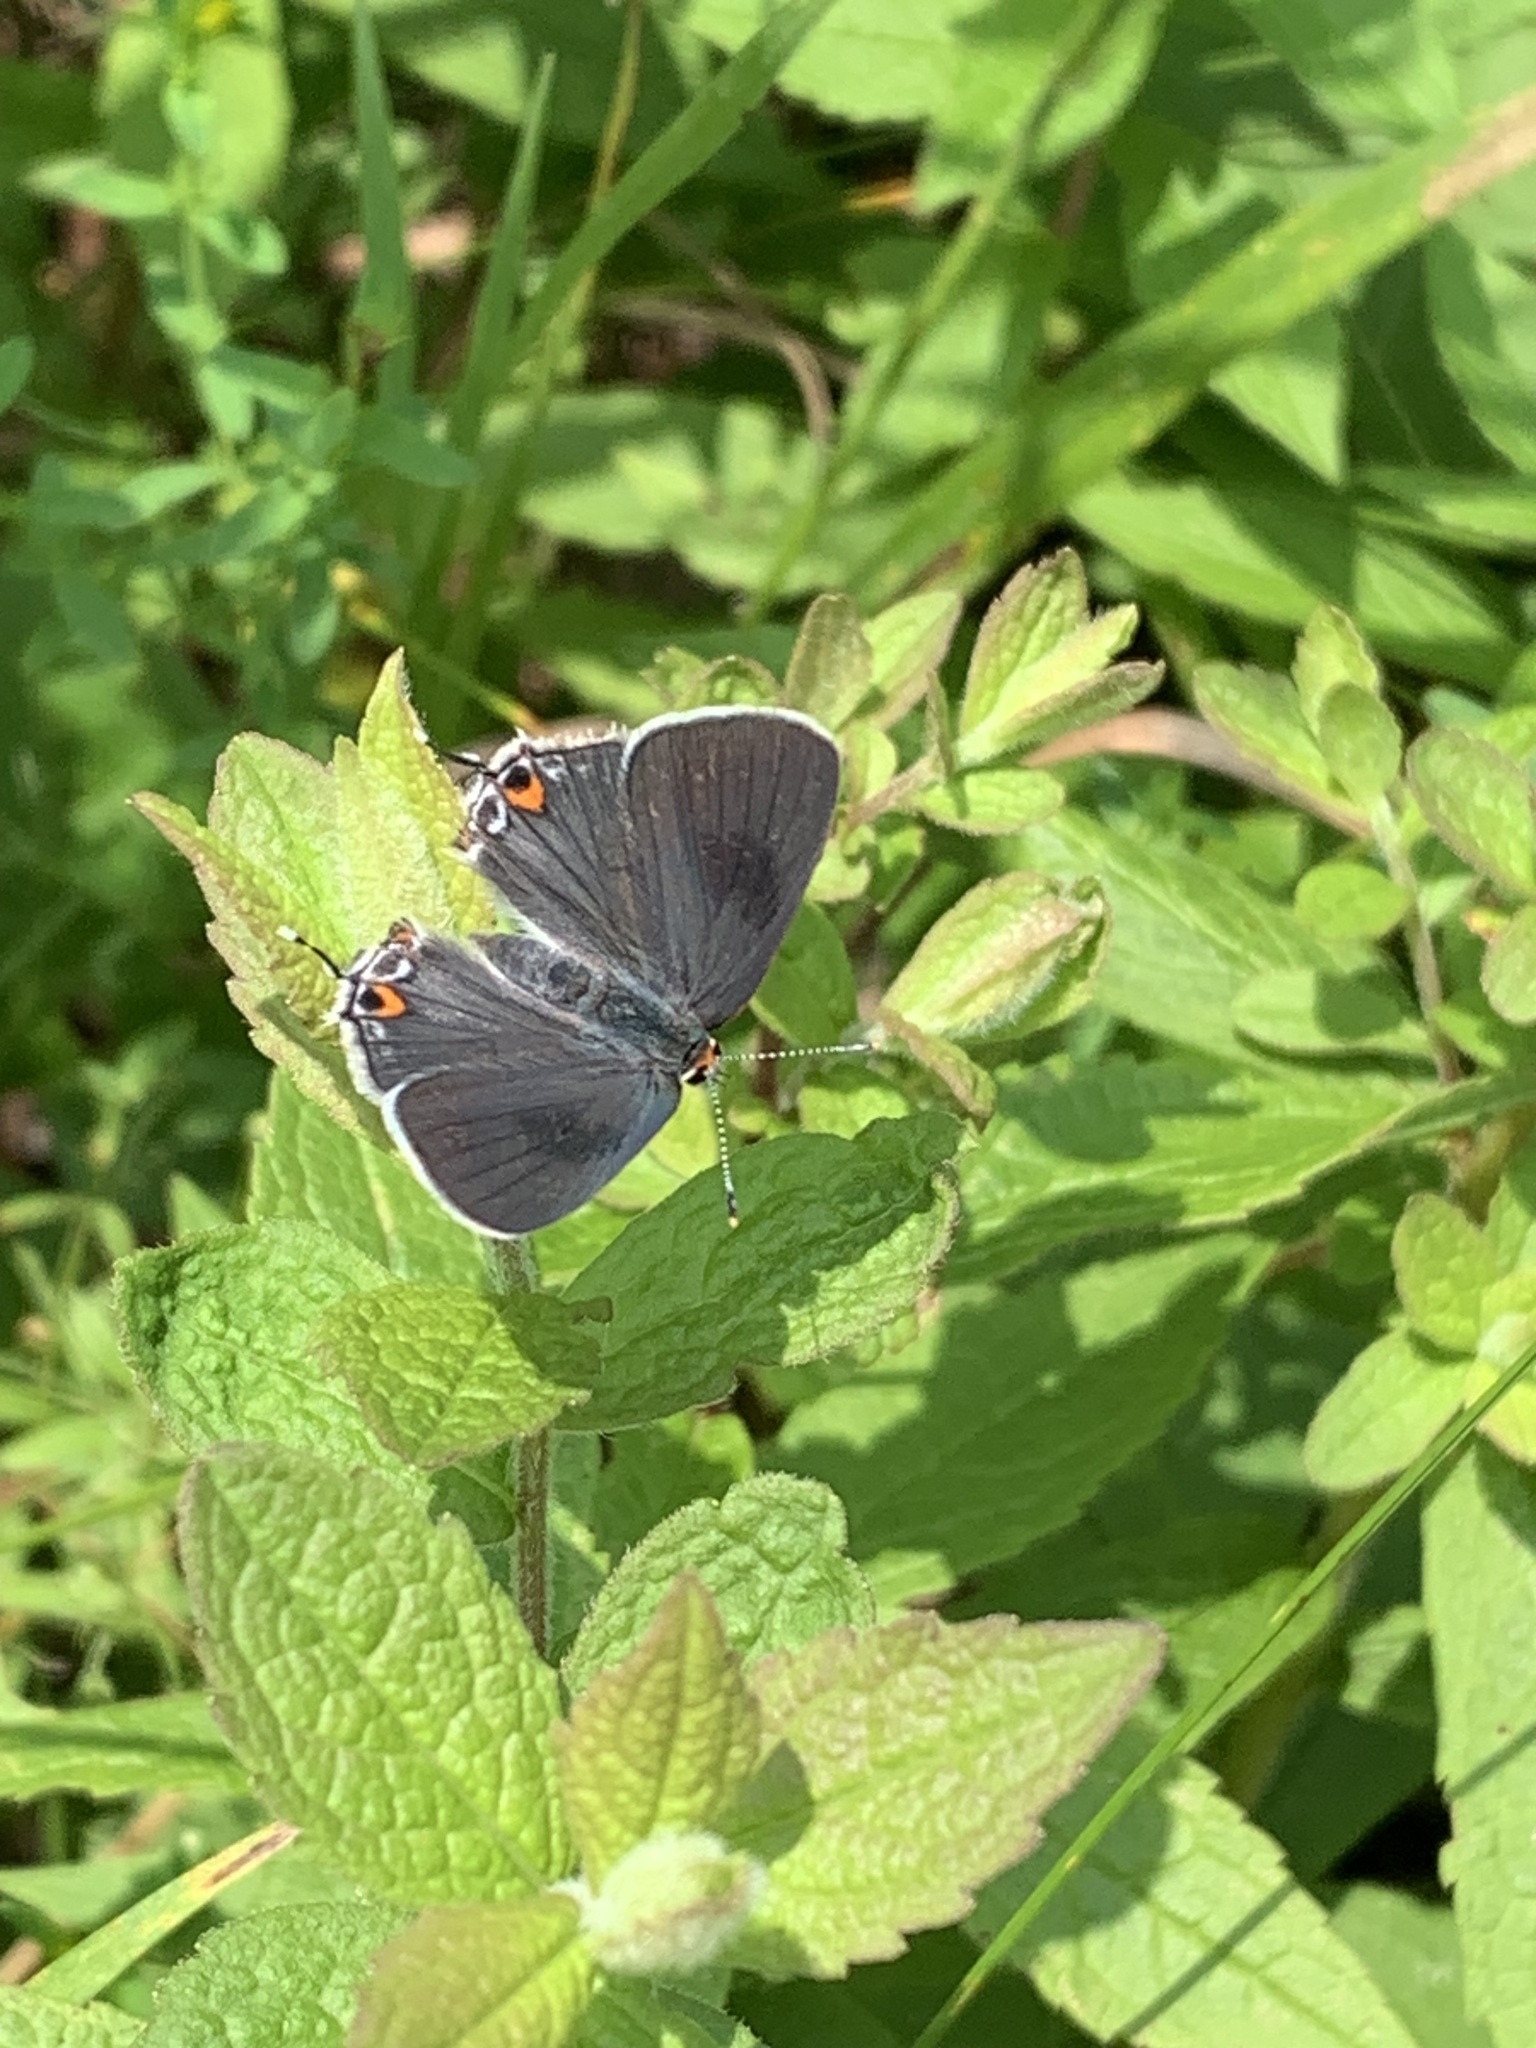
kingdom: Animalia
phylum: Arthropoda
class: Insecta
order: Lepidoptera
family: Lycaenidae
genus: Strymon
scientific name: Strymon melinus
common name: Gray hairstreak
